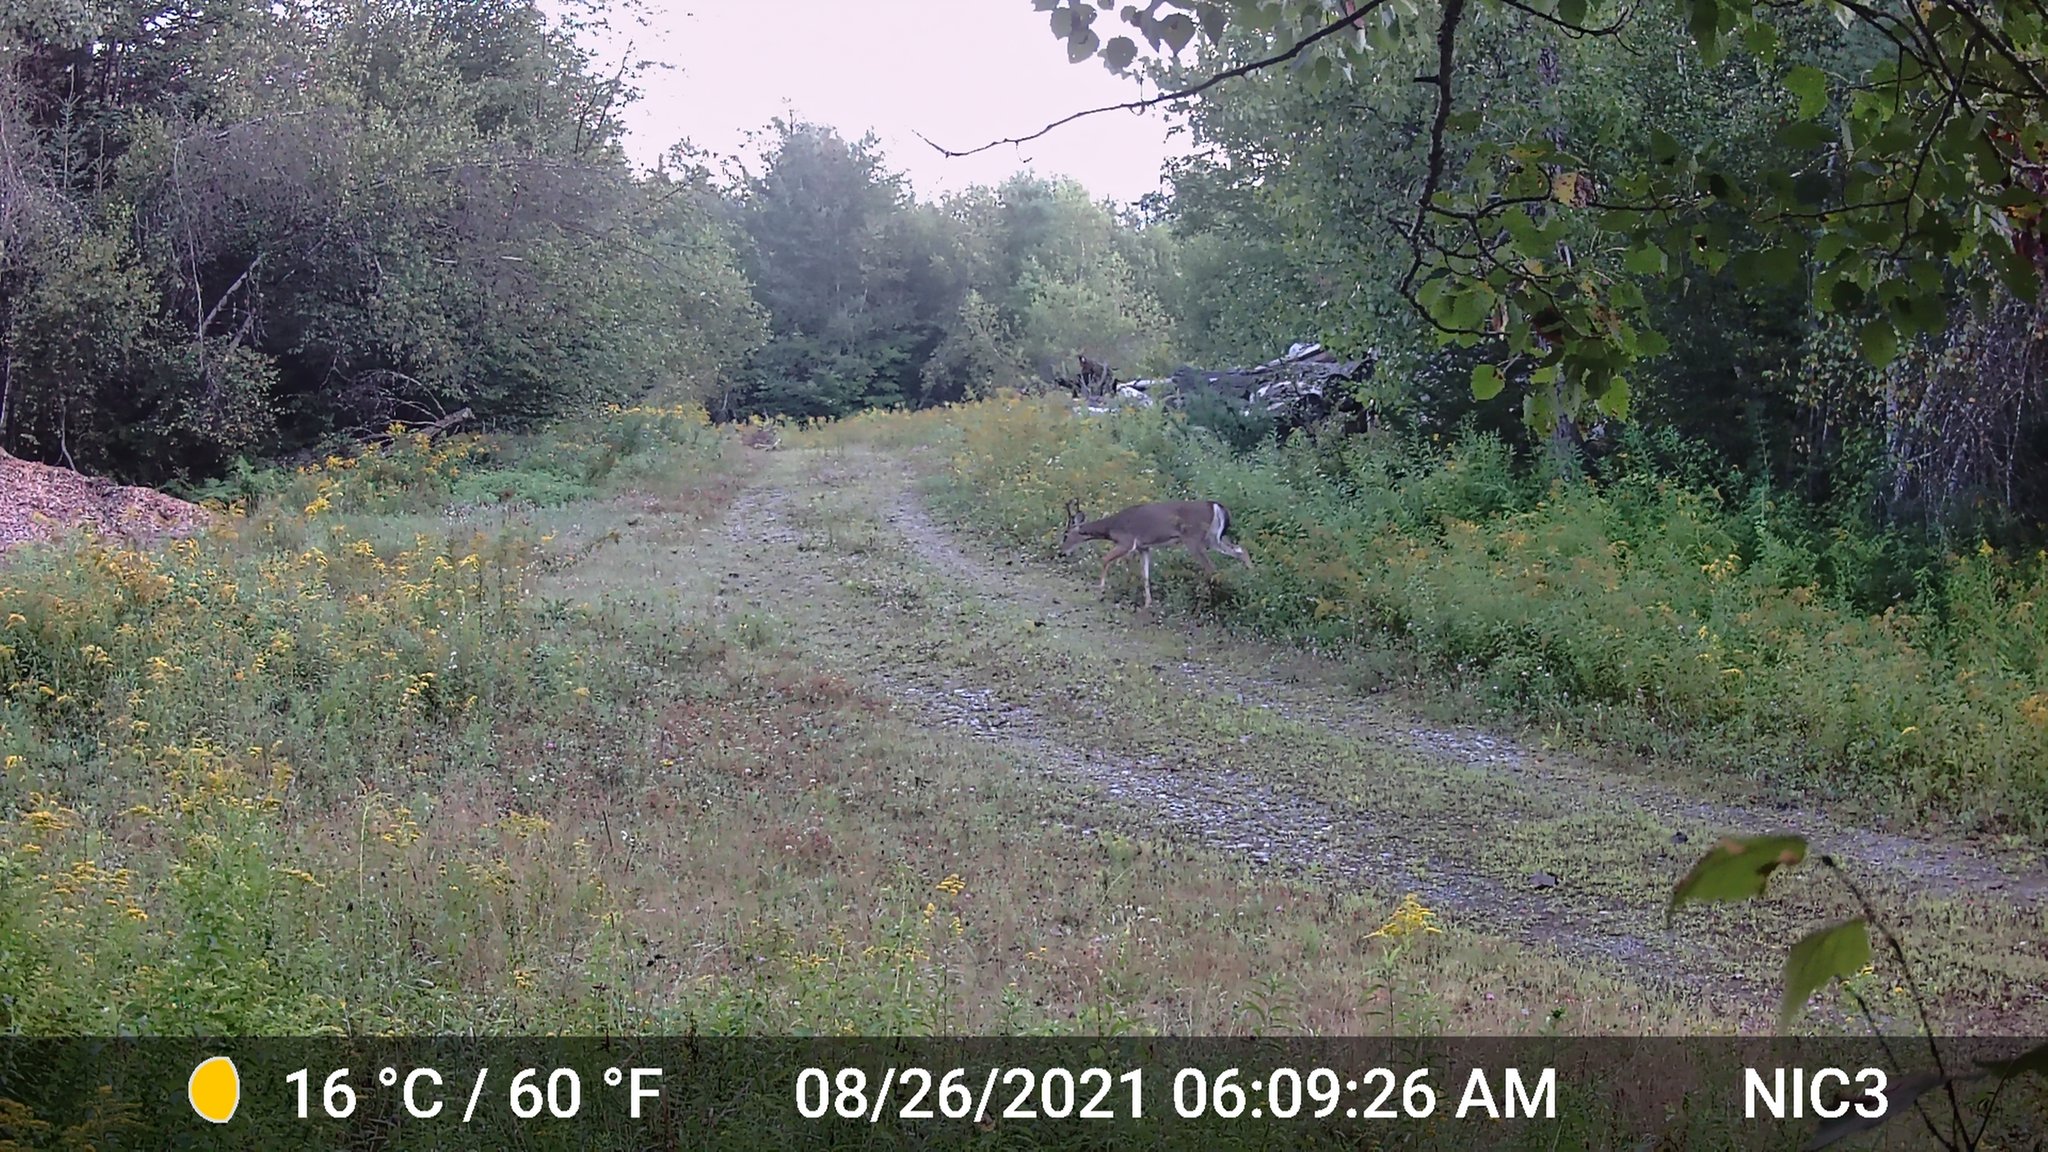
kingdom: Animalia
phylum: Chordata
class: Mammalia
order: Artiodactyla
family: Cervidae
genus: Odocoileus
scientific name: Odocoileus virginianus
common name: White-tailed deer
